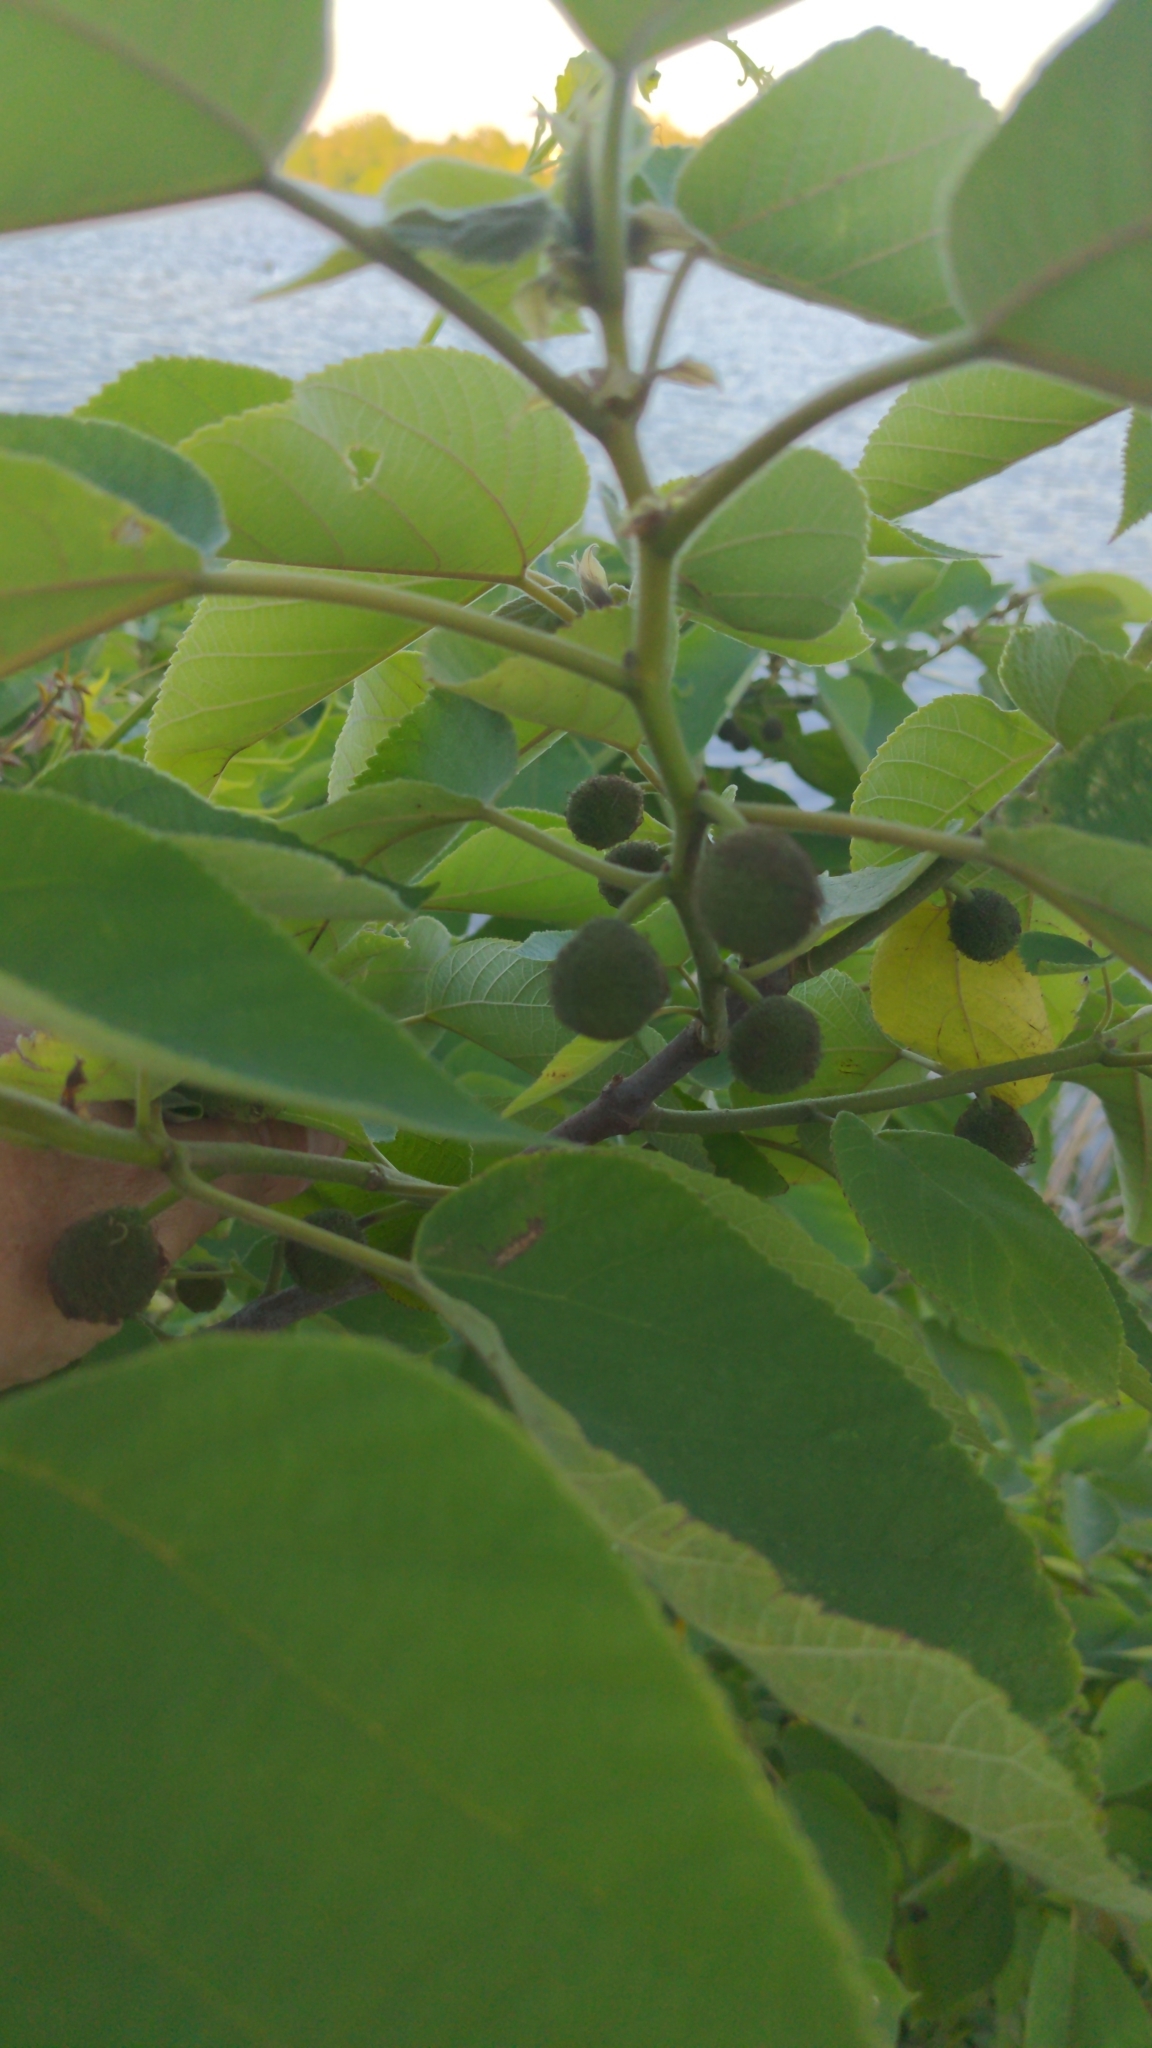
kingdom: Plantae
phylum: Tracheophyta
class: Magnoliopsida
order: Rosales
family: Moraceae
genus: Broussonetia
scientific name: Broussonetia papyrifera
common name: Paper mulberry
